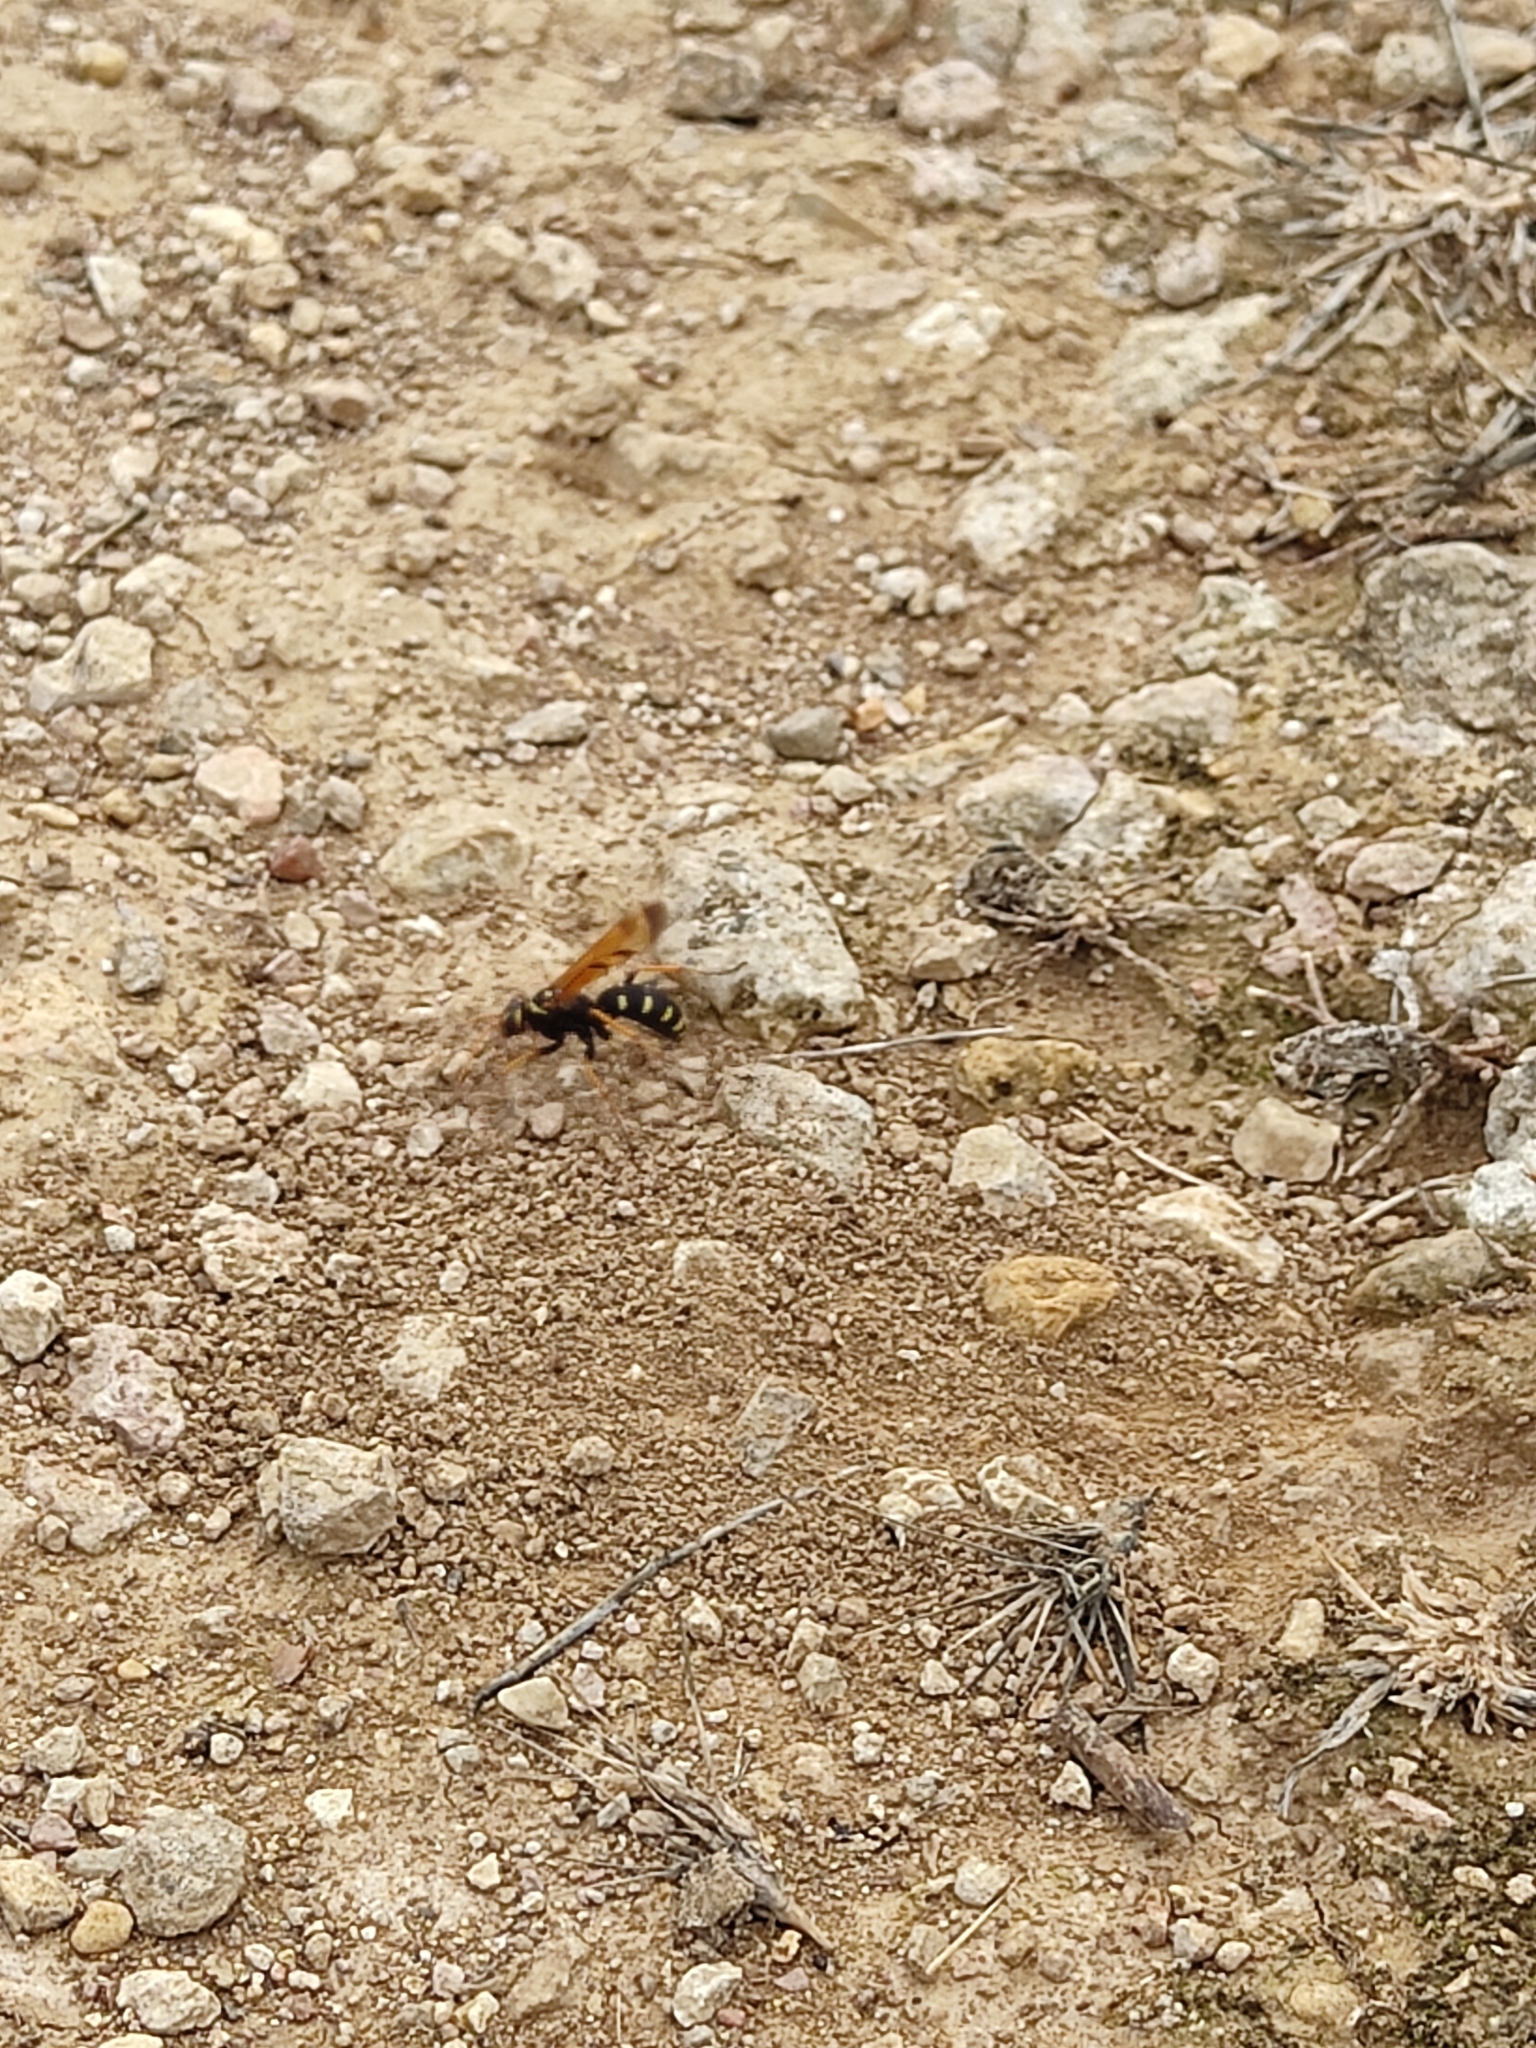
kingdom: Animalia
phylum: Arthropoda
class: Insecta
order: Hymenoptera
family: Pompilidae
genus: Parabatozonus
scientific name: Parabatozonus lacerticida
